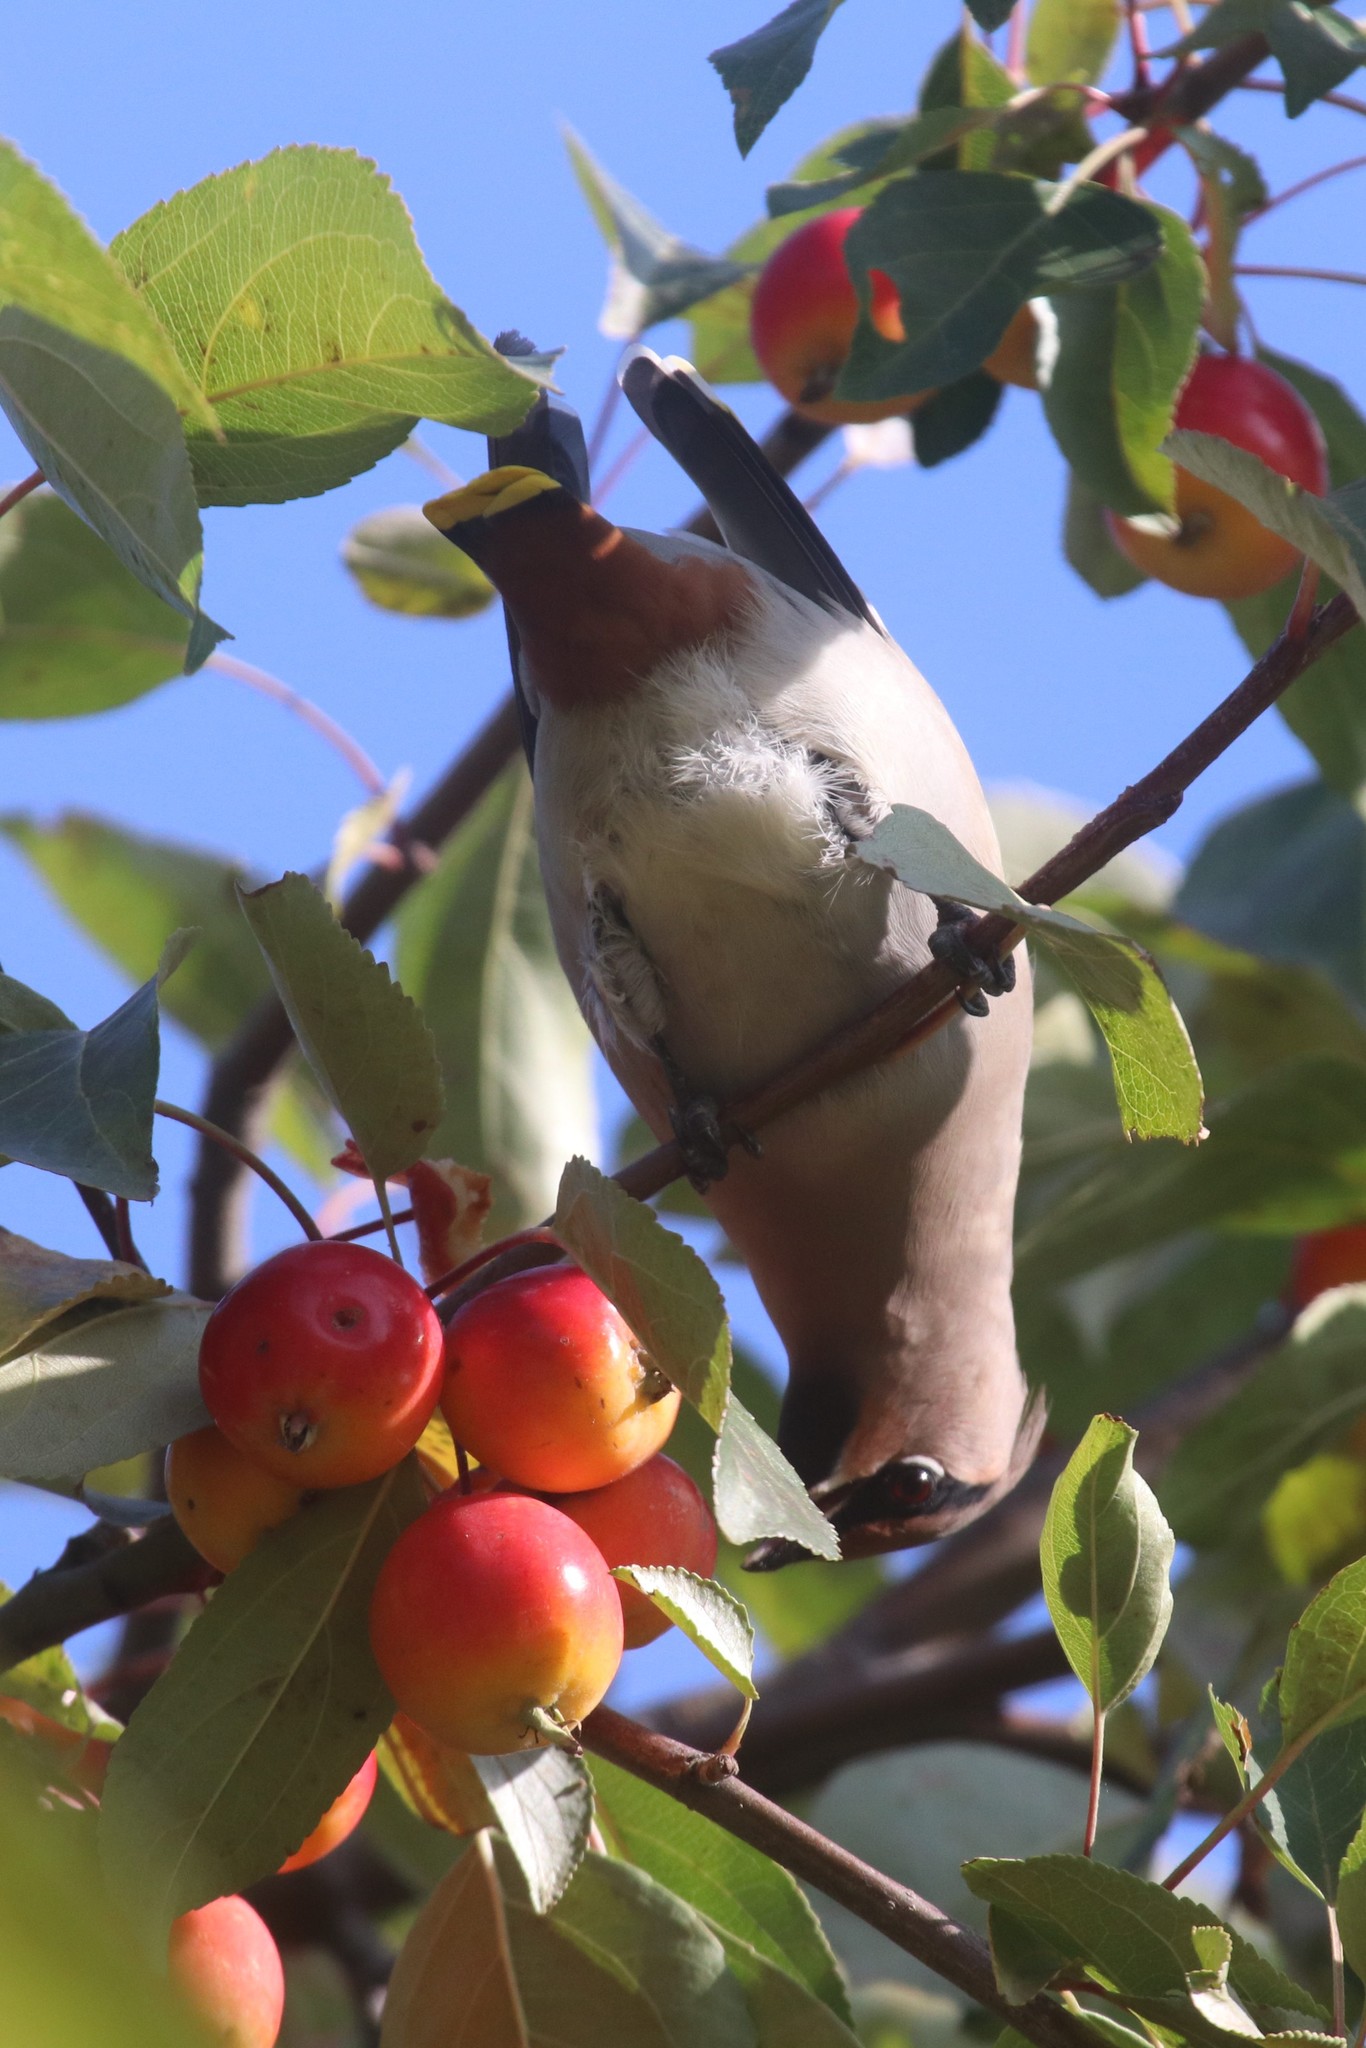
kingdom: Animalia
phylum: Chordata
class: Aves
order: Passeriformes
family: Bombycillidae
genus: Bombycilla
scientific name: Bombycilla garrulus
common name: Bohemian waxwing
